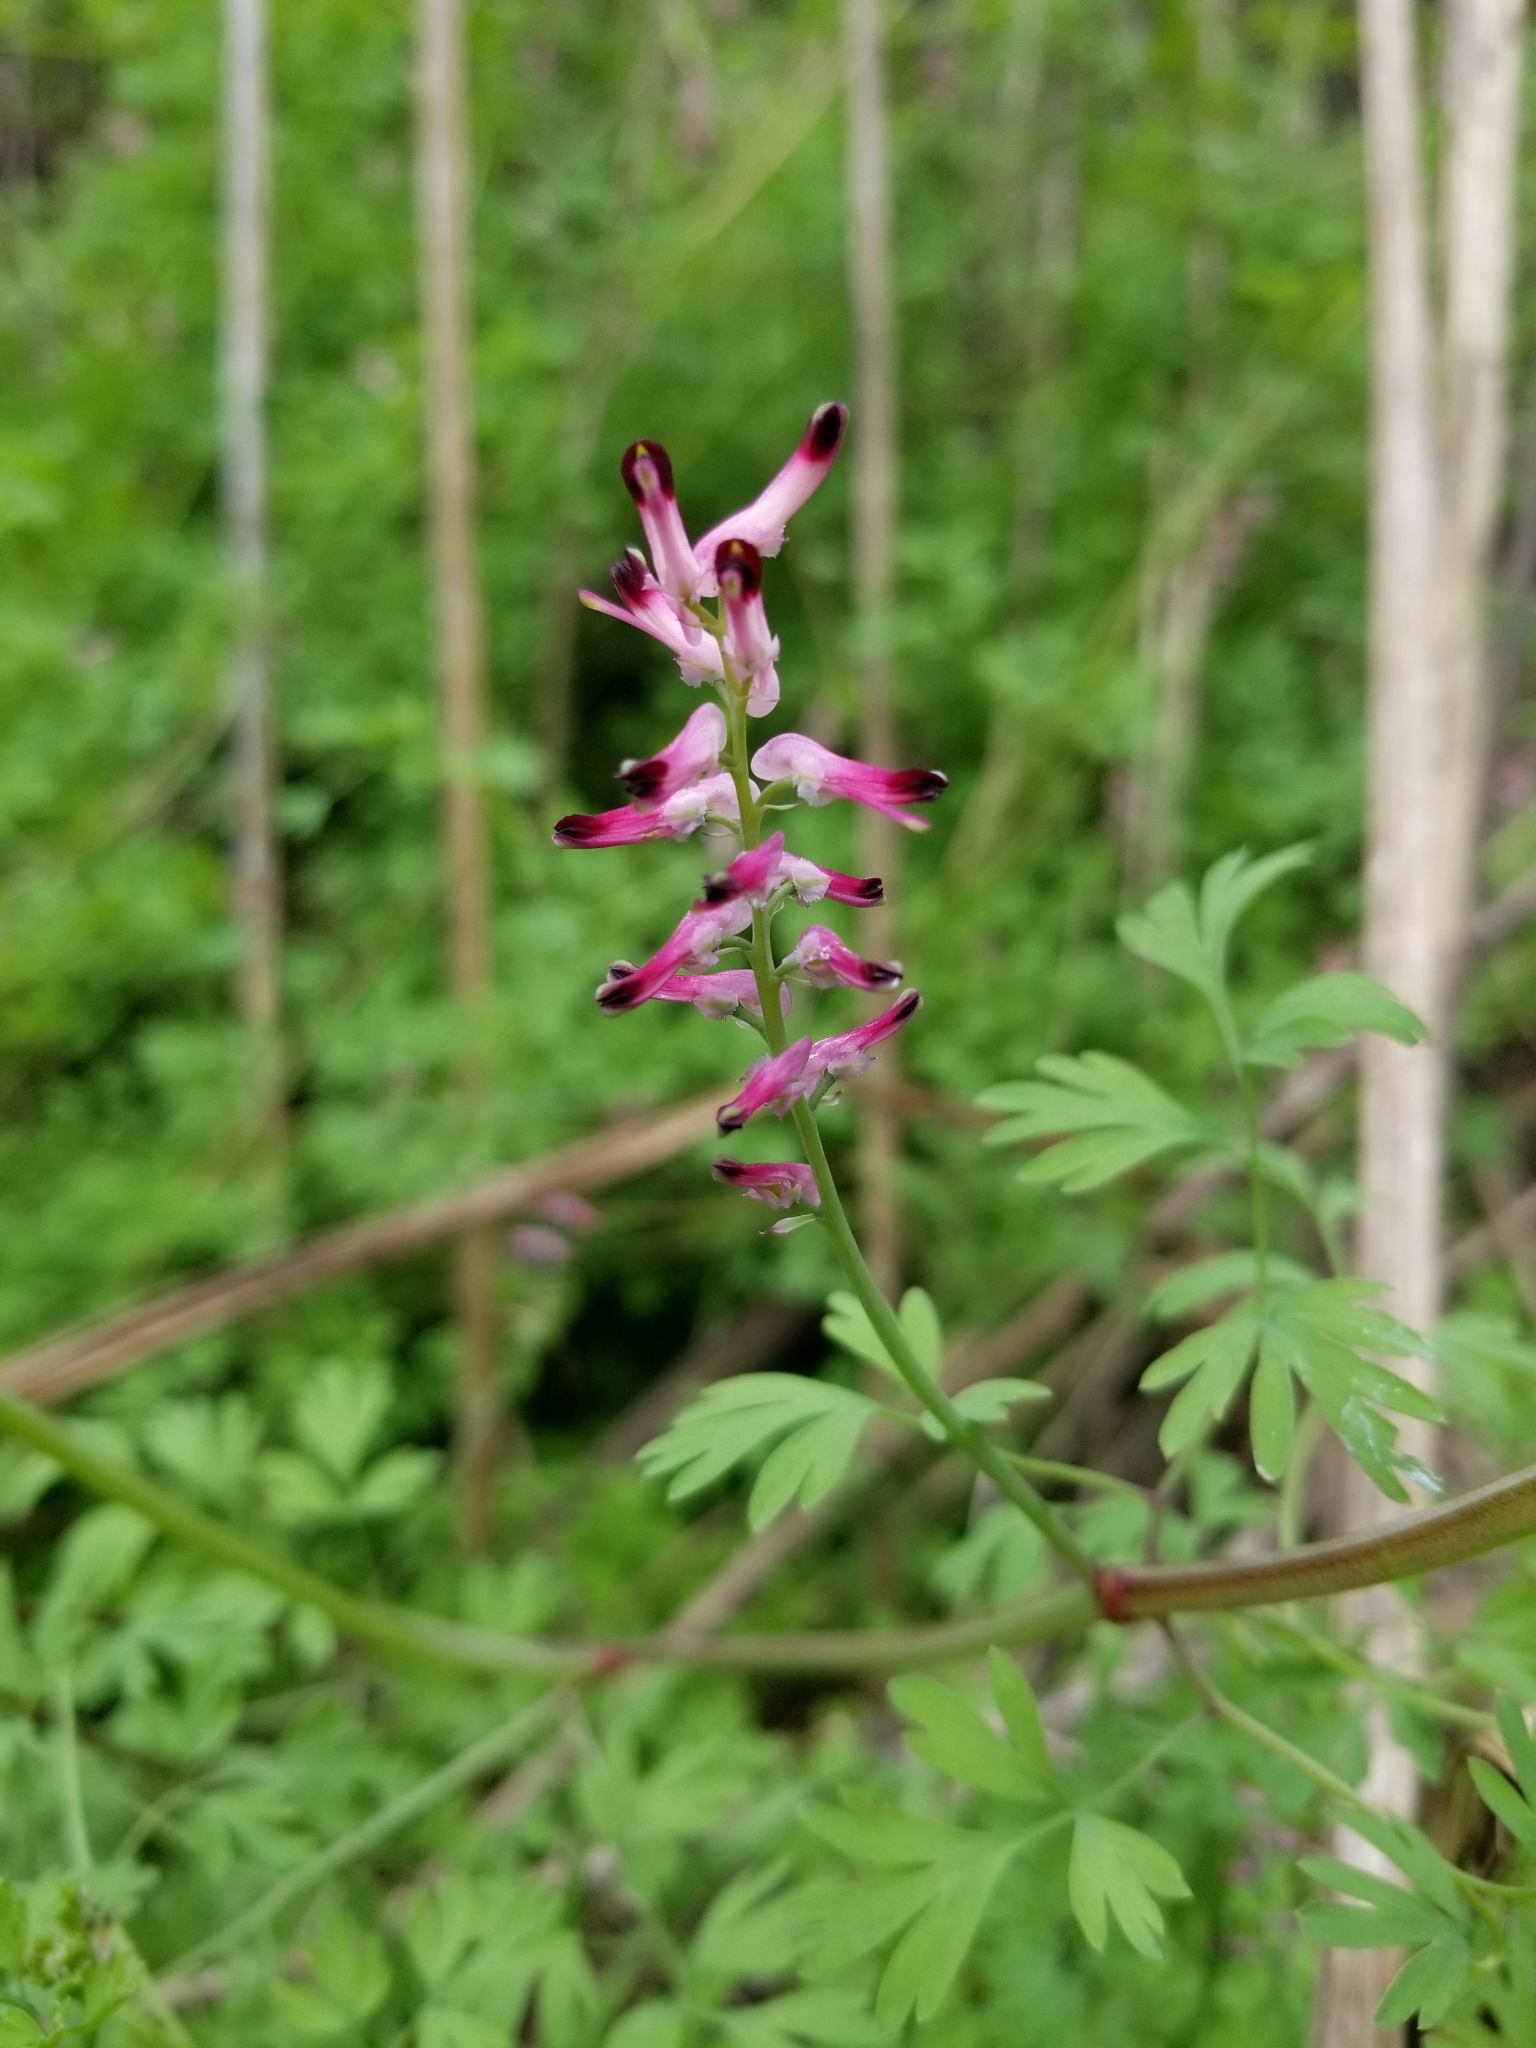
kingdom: Plantae
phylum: Tracheophyta
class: Magnoliopsida
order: Ranunculales
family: Papaveraceae
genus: Fumaria
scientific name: Fumaria muralis
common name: Common ramping-fumitory
